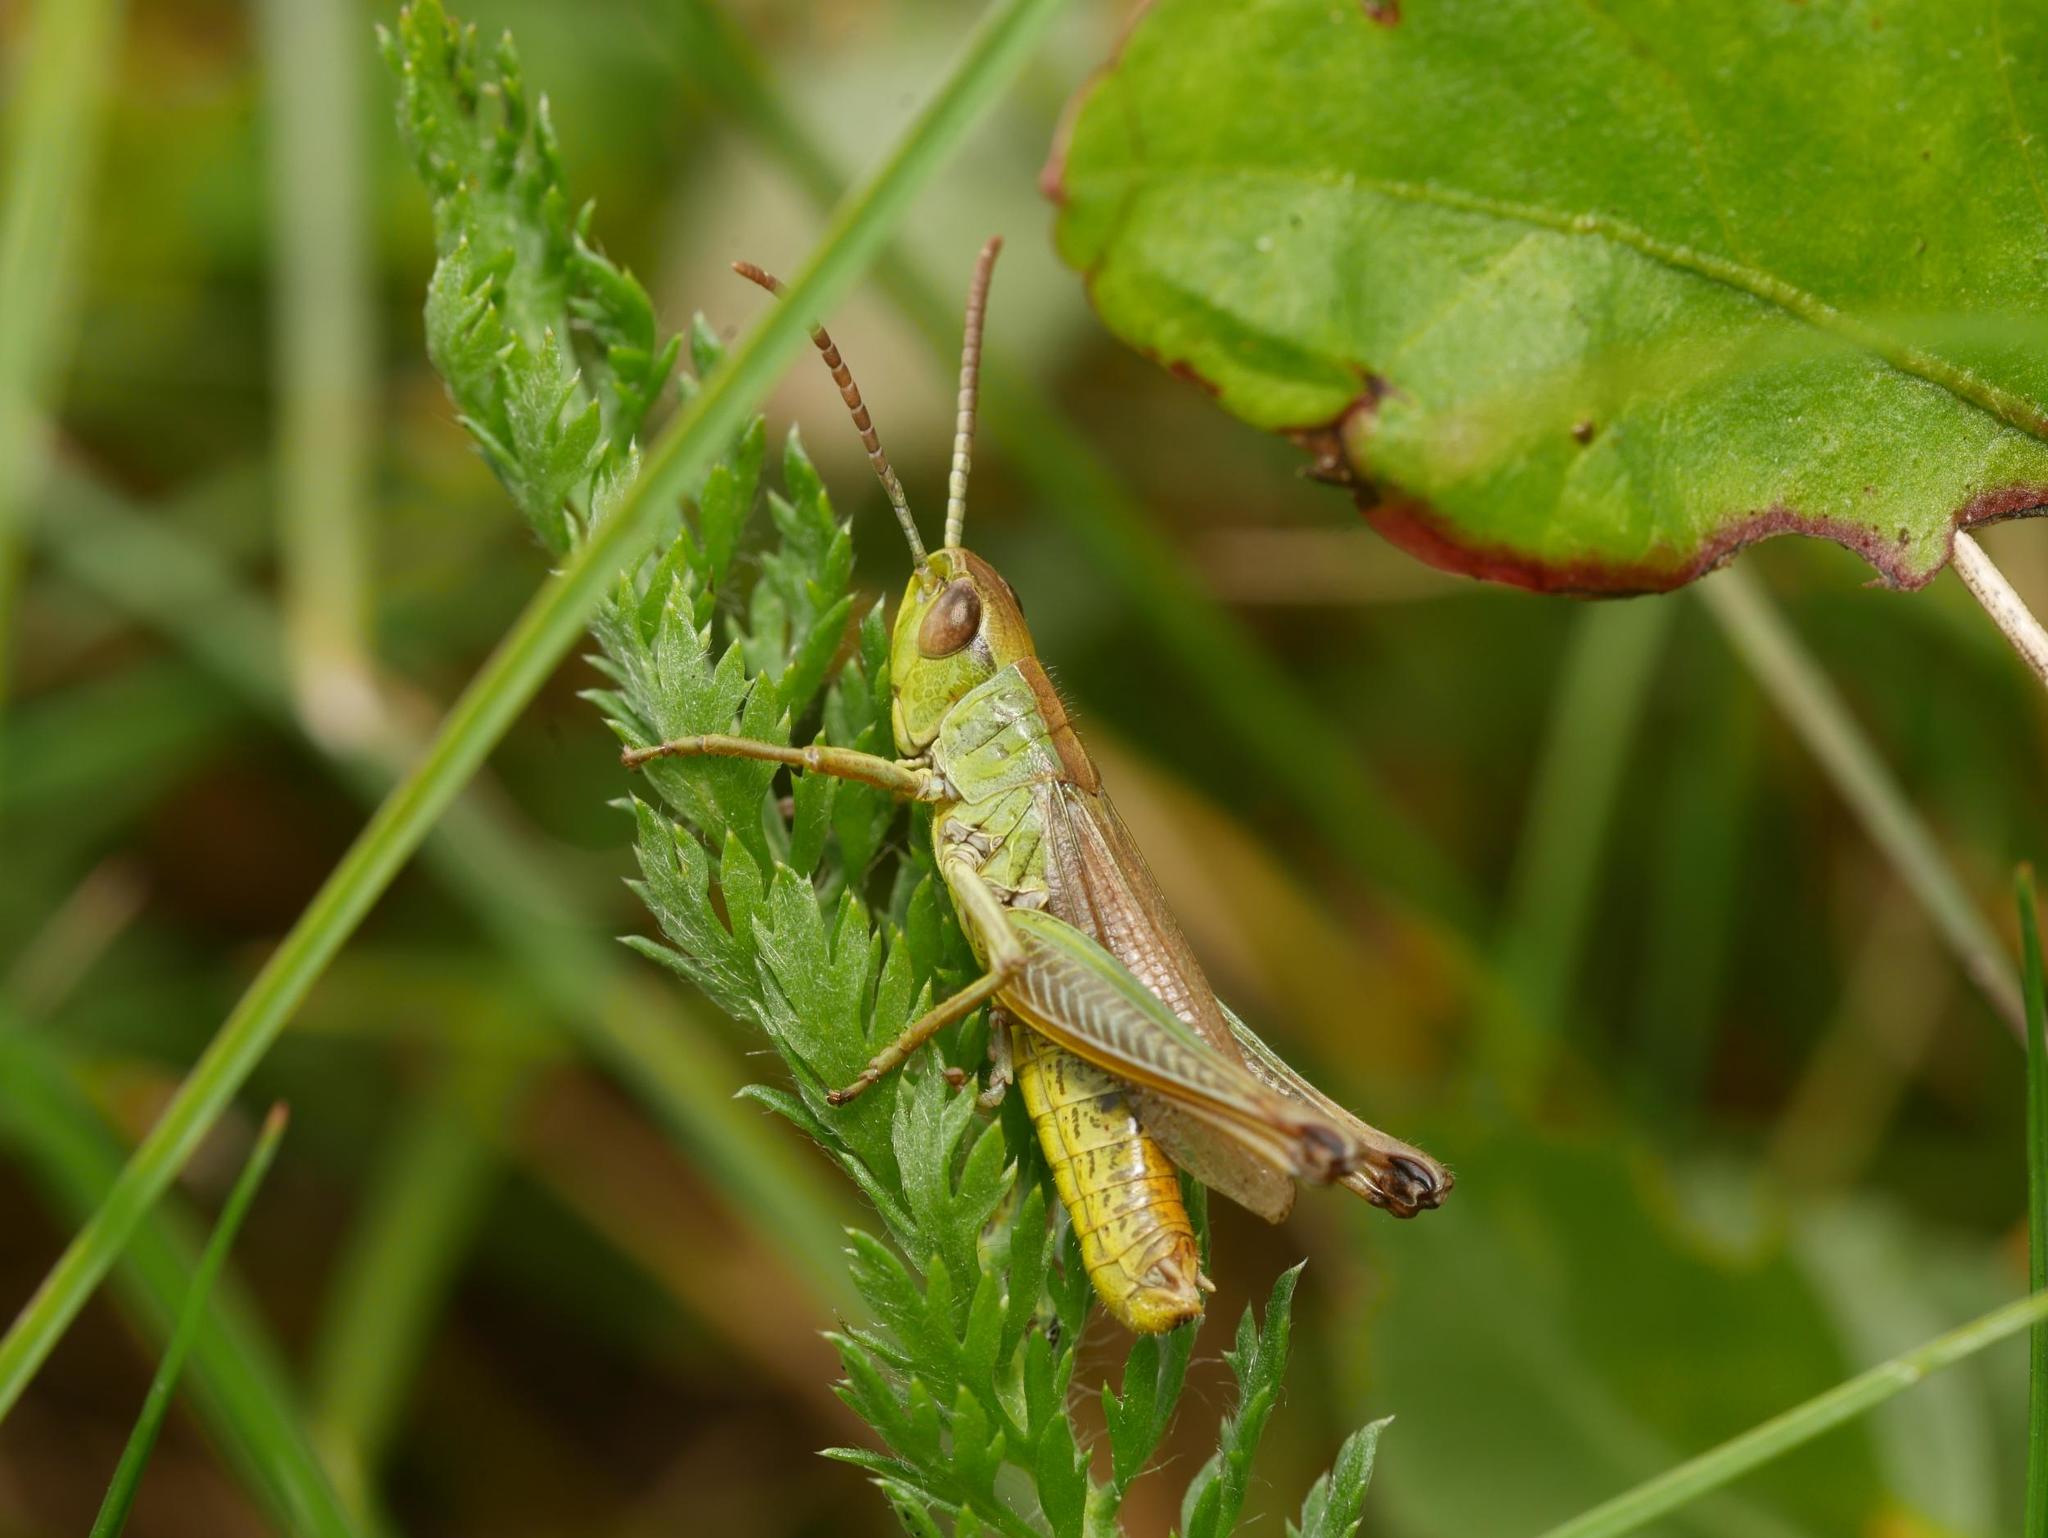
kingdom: Animalia
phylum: Arthropoda
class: Insecta
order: Orthoptera
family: Acrididae
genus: Pseudochorthippus
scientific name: Pseudochorthippus parallelus
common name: Meadow grasshopper
